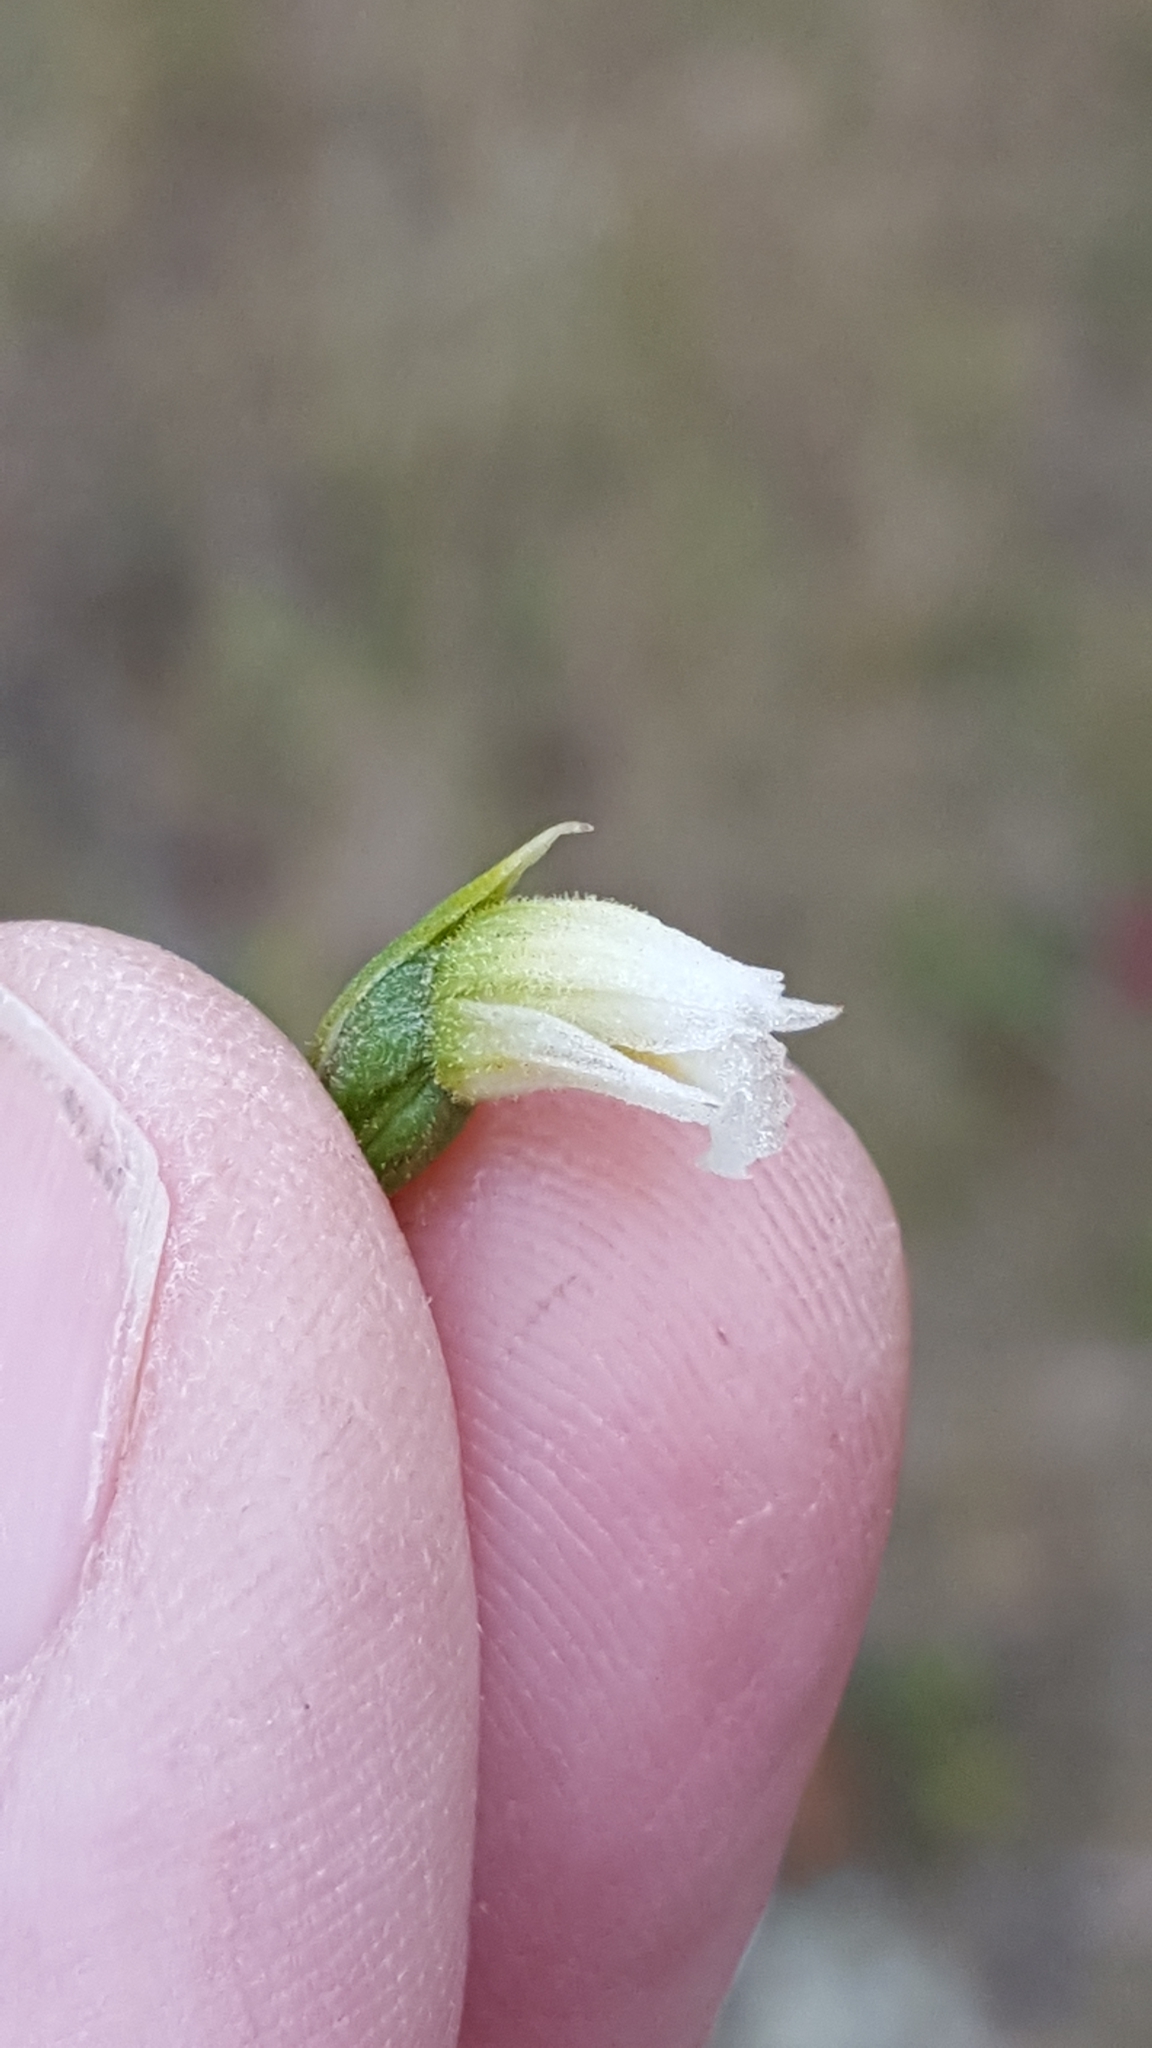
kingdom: Plantae
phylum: Tracheophyta
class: Liliopsida
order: Asparagales
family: Orchidaceae
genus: Spiranthes
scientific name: Spiranthes casei
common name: Case's ladies'-tresses
